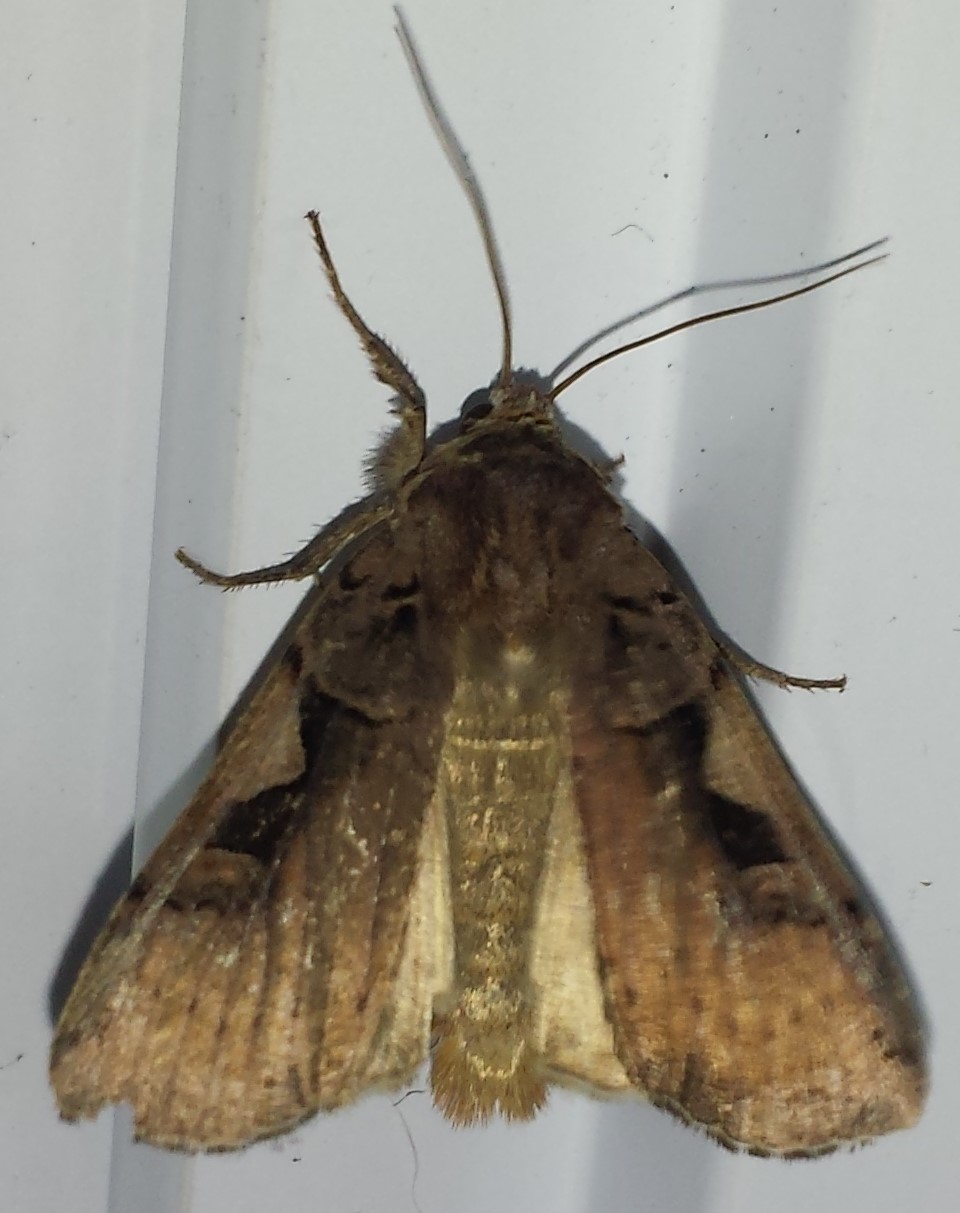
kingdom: Animalia
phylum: Arthropoda
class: Insecta
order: Lepidoptera
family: Noctuidae
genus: Xestia
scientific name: Xestia
